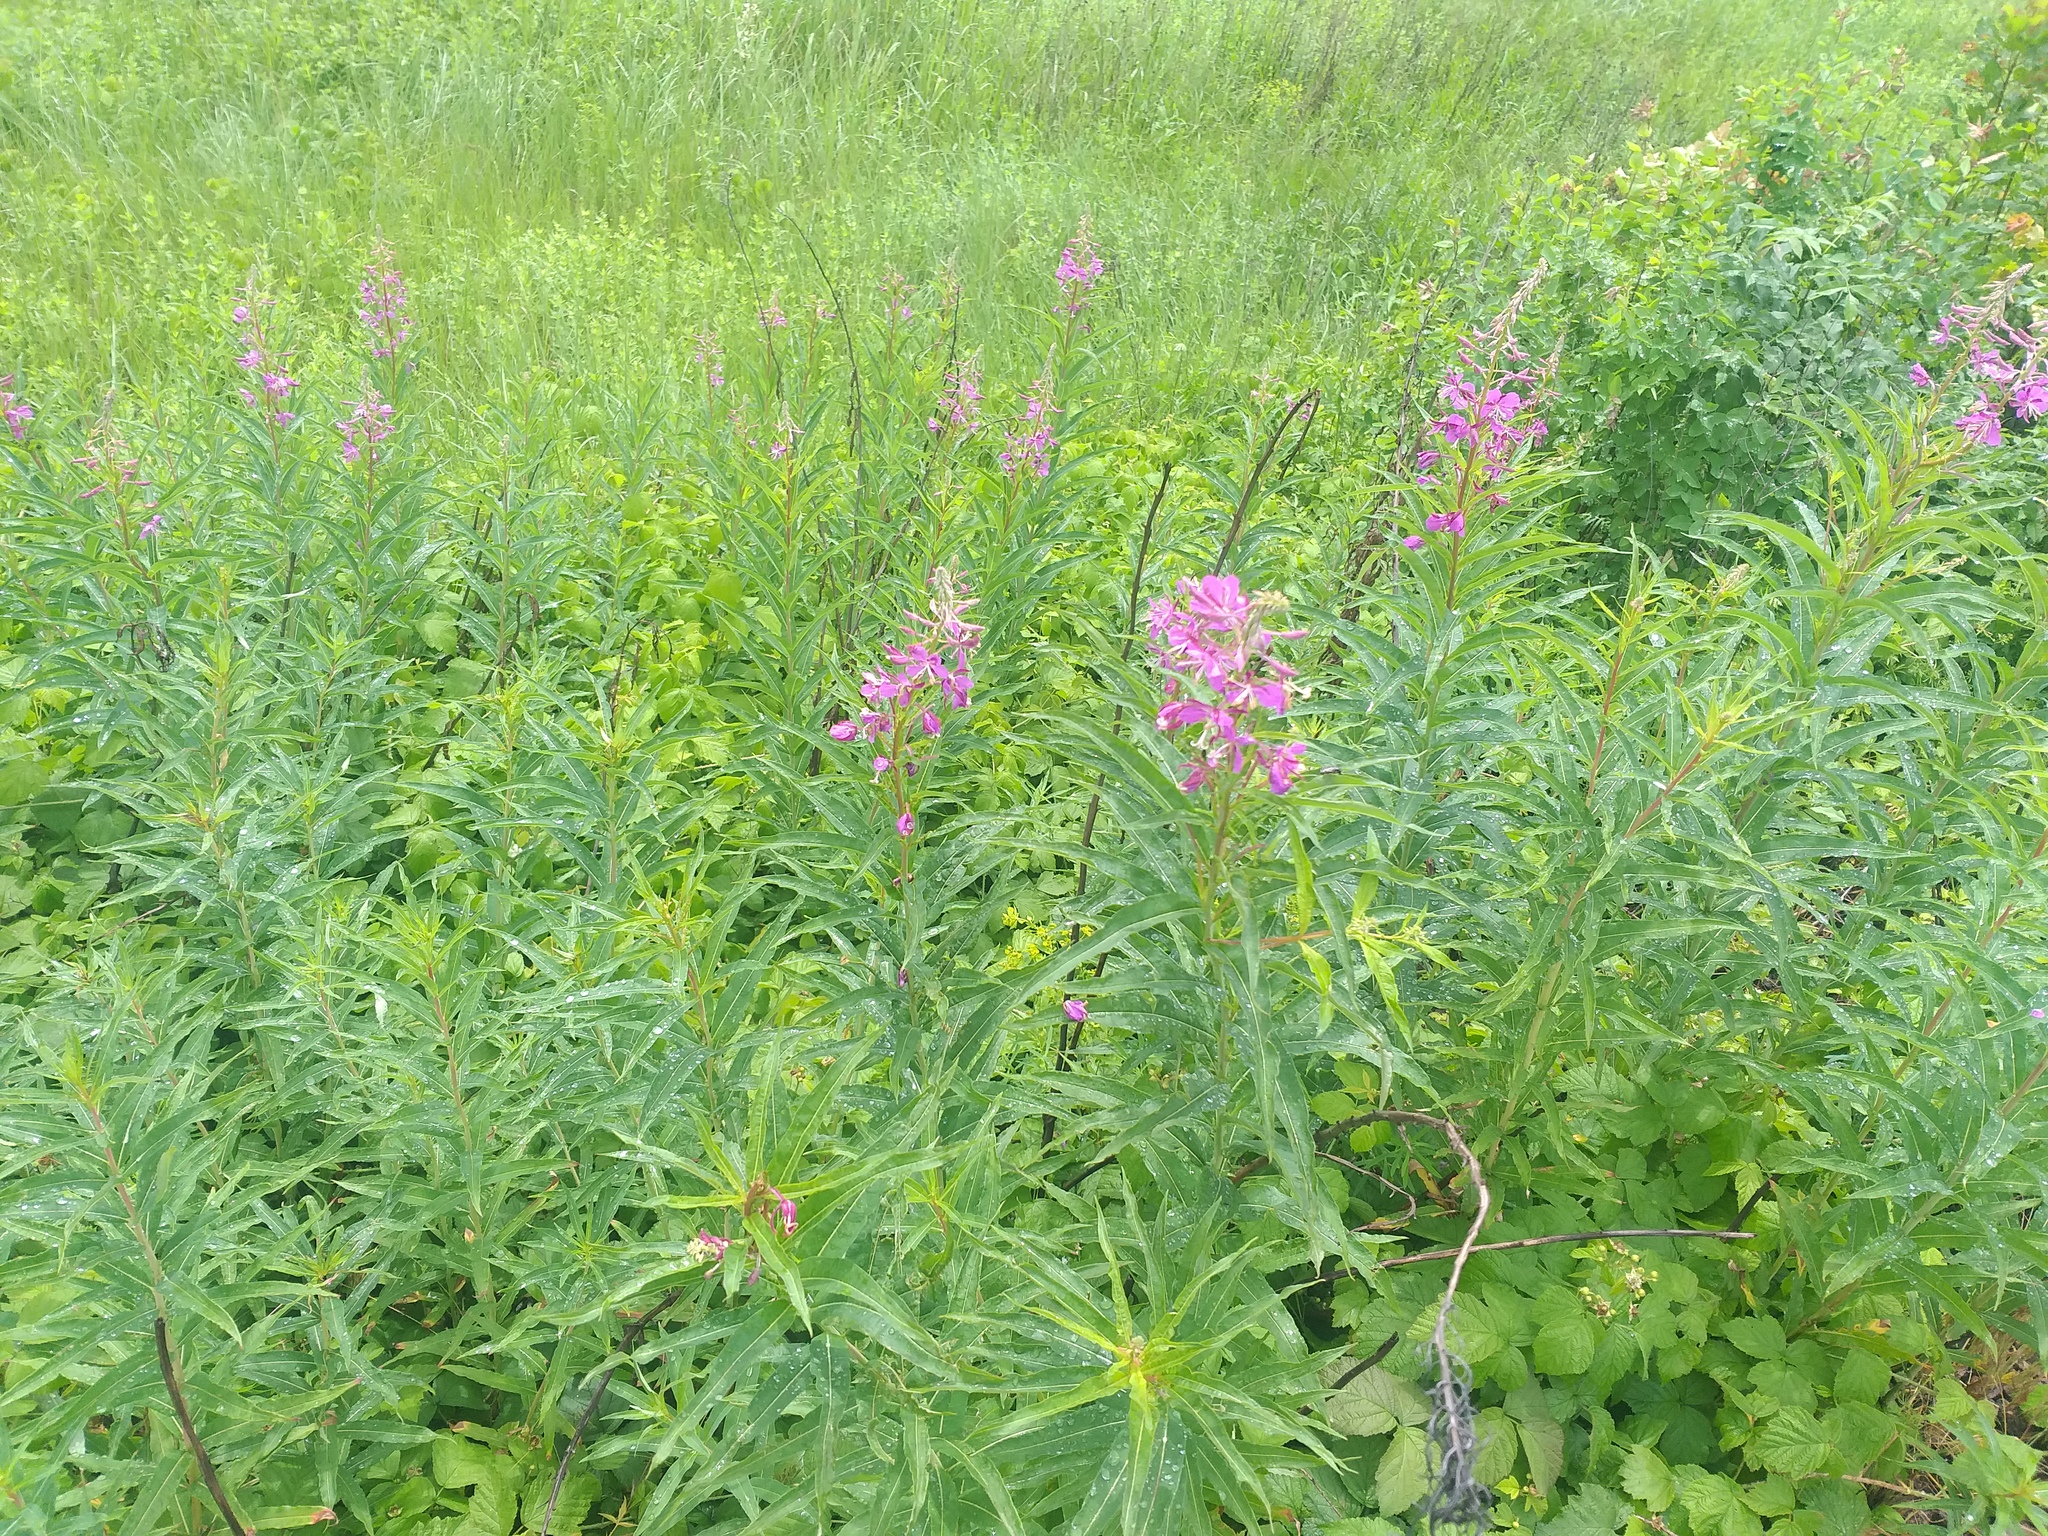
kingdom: Plantae
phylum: Tracheophyta
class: Magnoliopsida
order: Myrtales
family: Onagraceae
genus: Chamaenerion
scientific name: Chamaenerion angustifolium
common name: Fireweed
